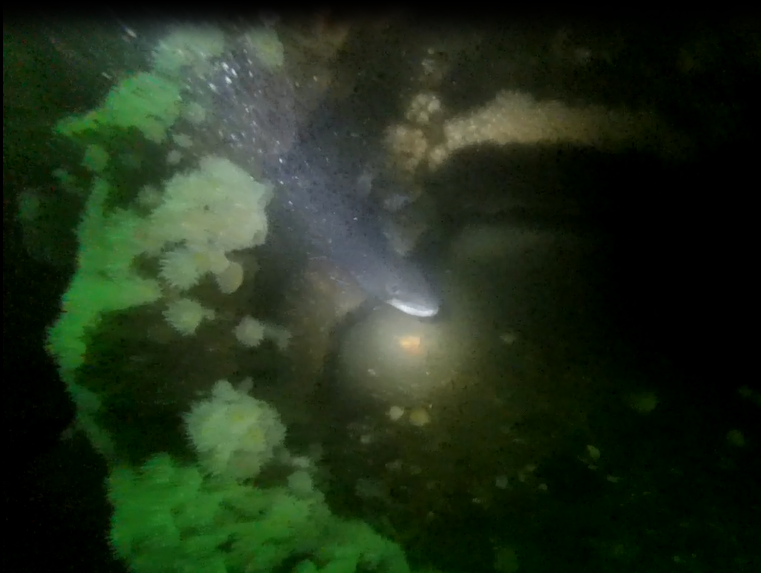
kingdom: Animalia
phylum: Chordata
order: Anguilliformes
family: Congridae
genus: Conger
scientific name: Conger conger
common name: Conger eel
